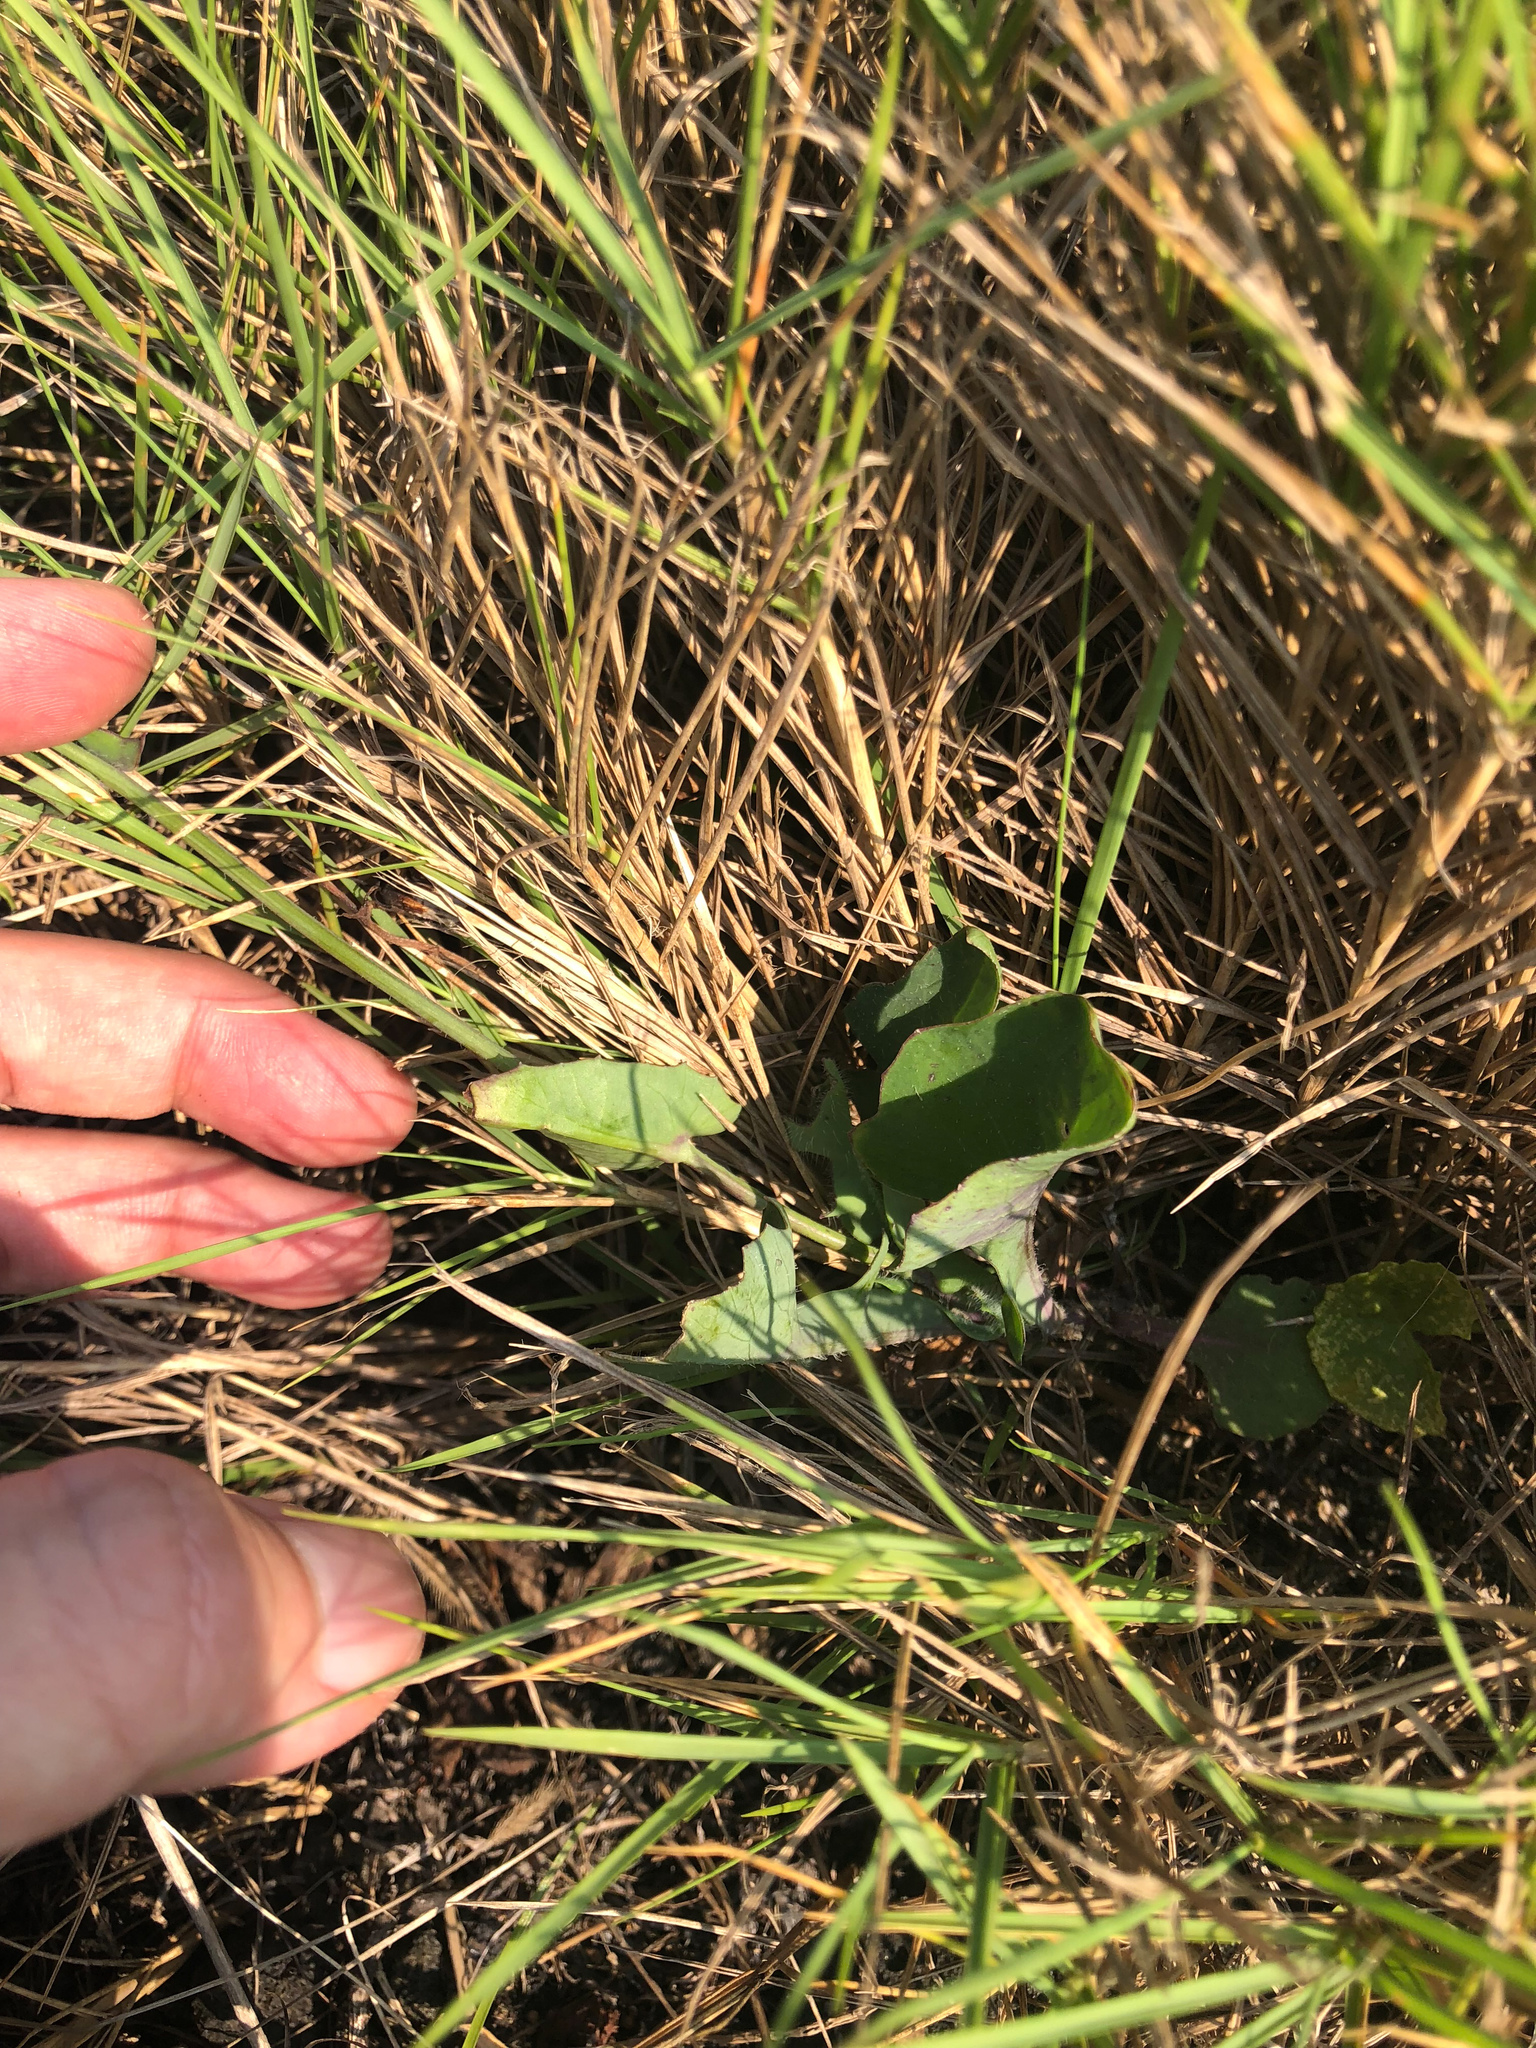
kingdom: Plantae
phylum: Tracheophyta
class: Magnoliopsida
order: Asterales
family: Asteraceae
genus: Emilia
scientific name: Emilia javanica
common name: Tassel-flower
